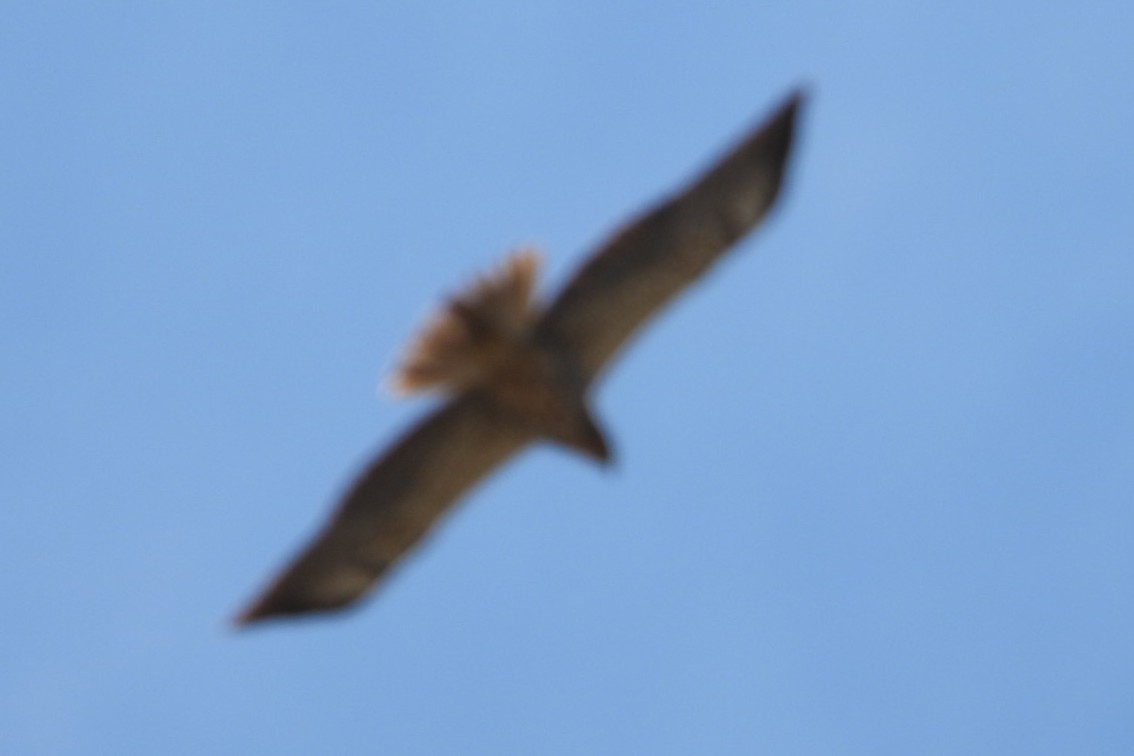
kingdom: Animalia
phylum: Chordata
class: Aves
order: Accipitriformes
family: Accipitridae
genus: Buteo
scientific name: Buteo jamaicensis
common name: Red-tailed hawk
